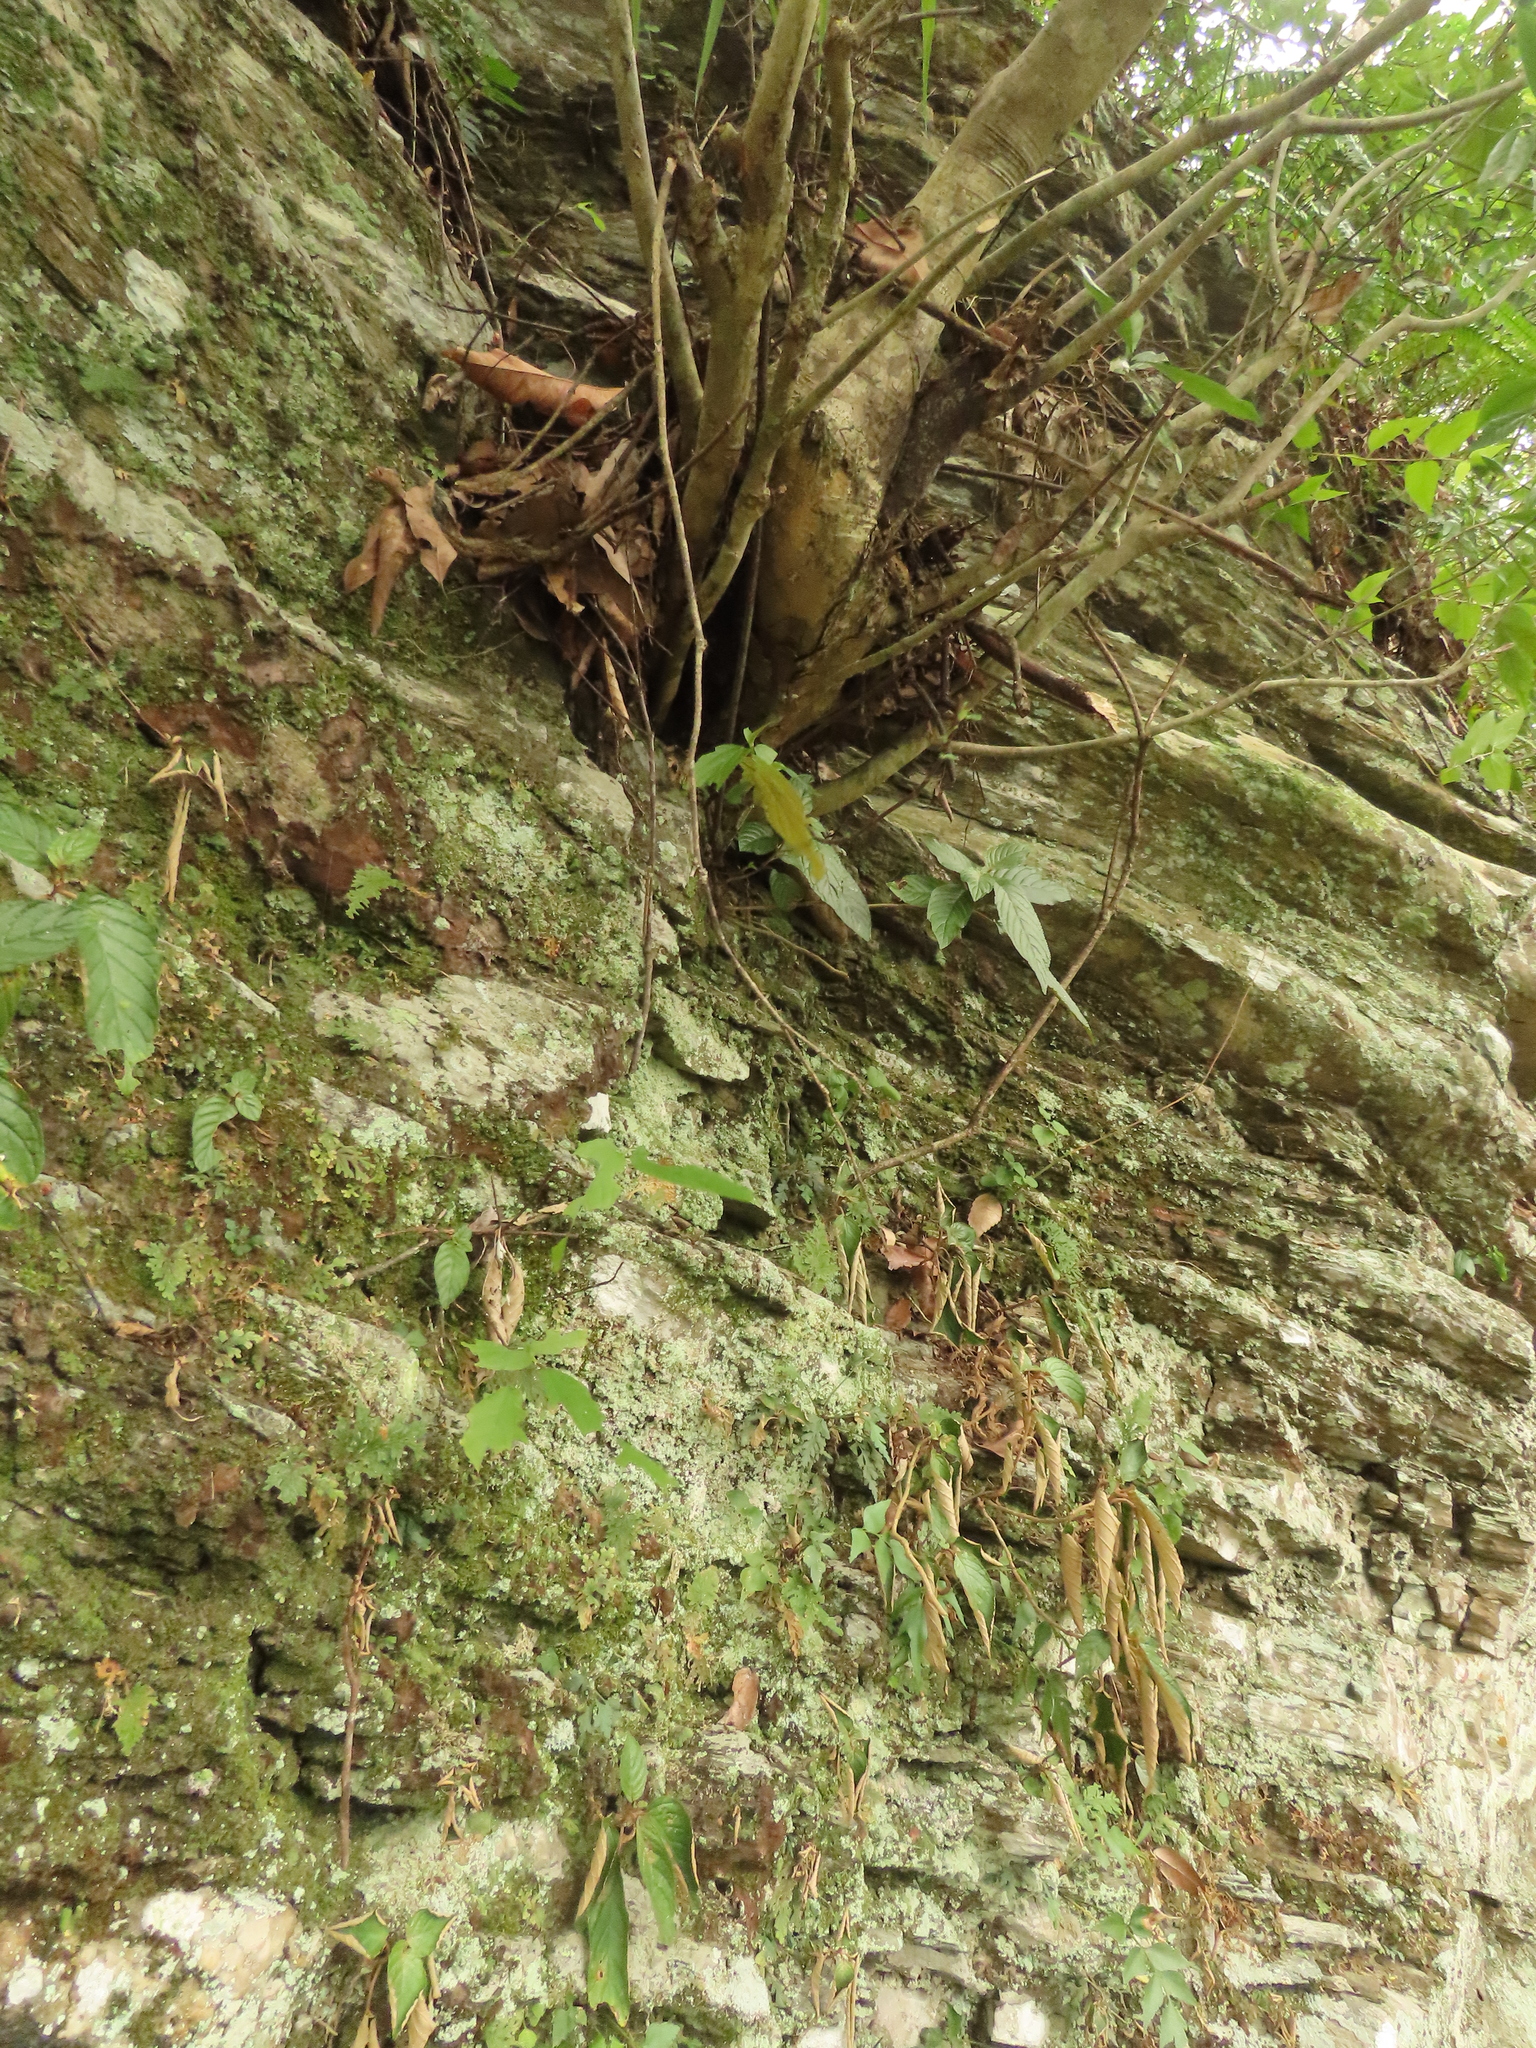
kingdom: Plantae
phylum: Tracheophyta
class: Magnoliopsida
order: Lamiales
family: Gesneriaceae
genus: Paraboea
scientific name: Paraboea swinhoei
